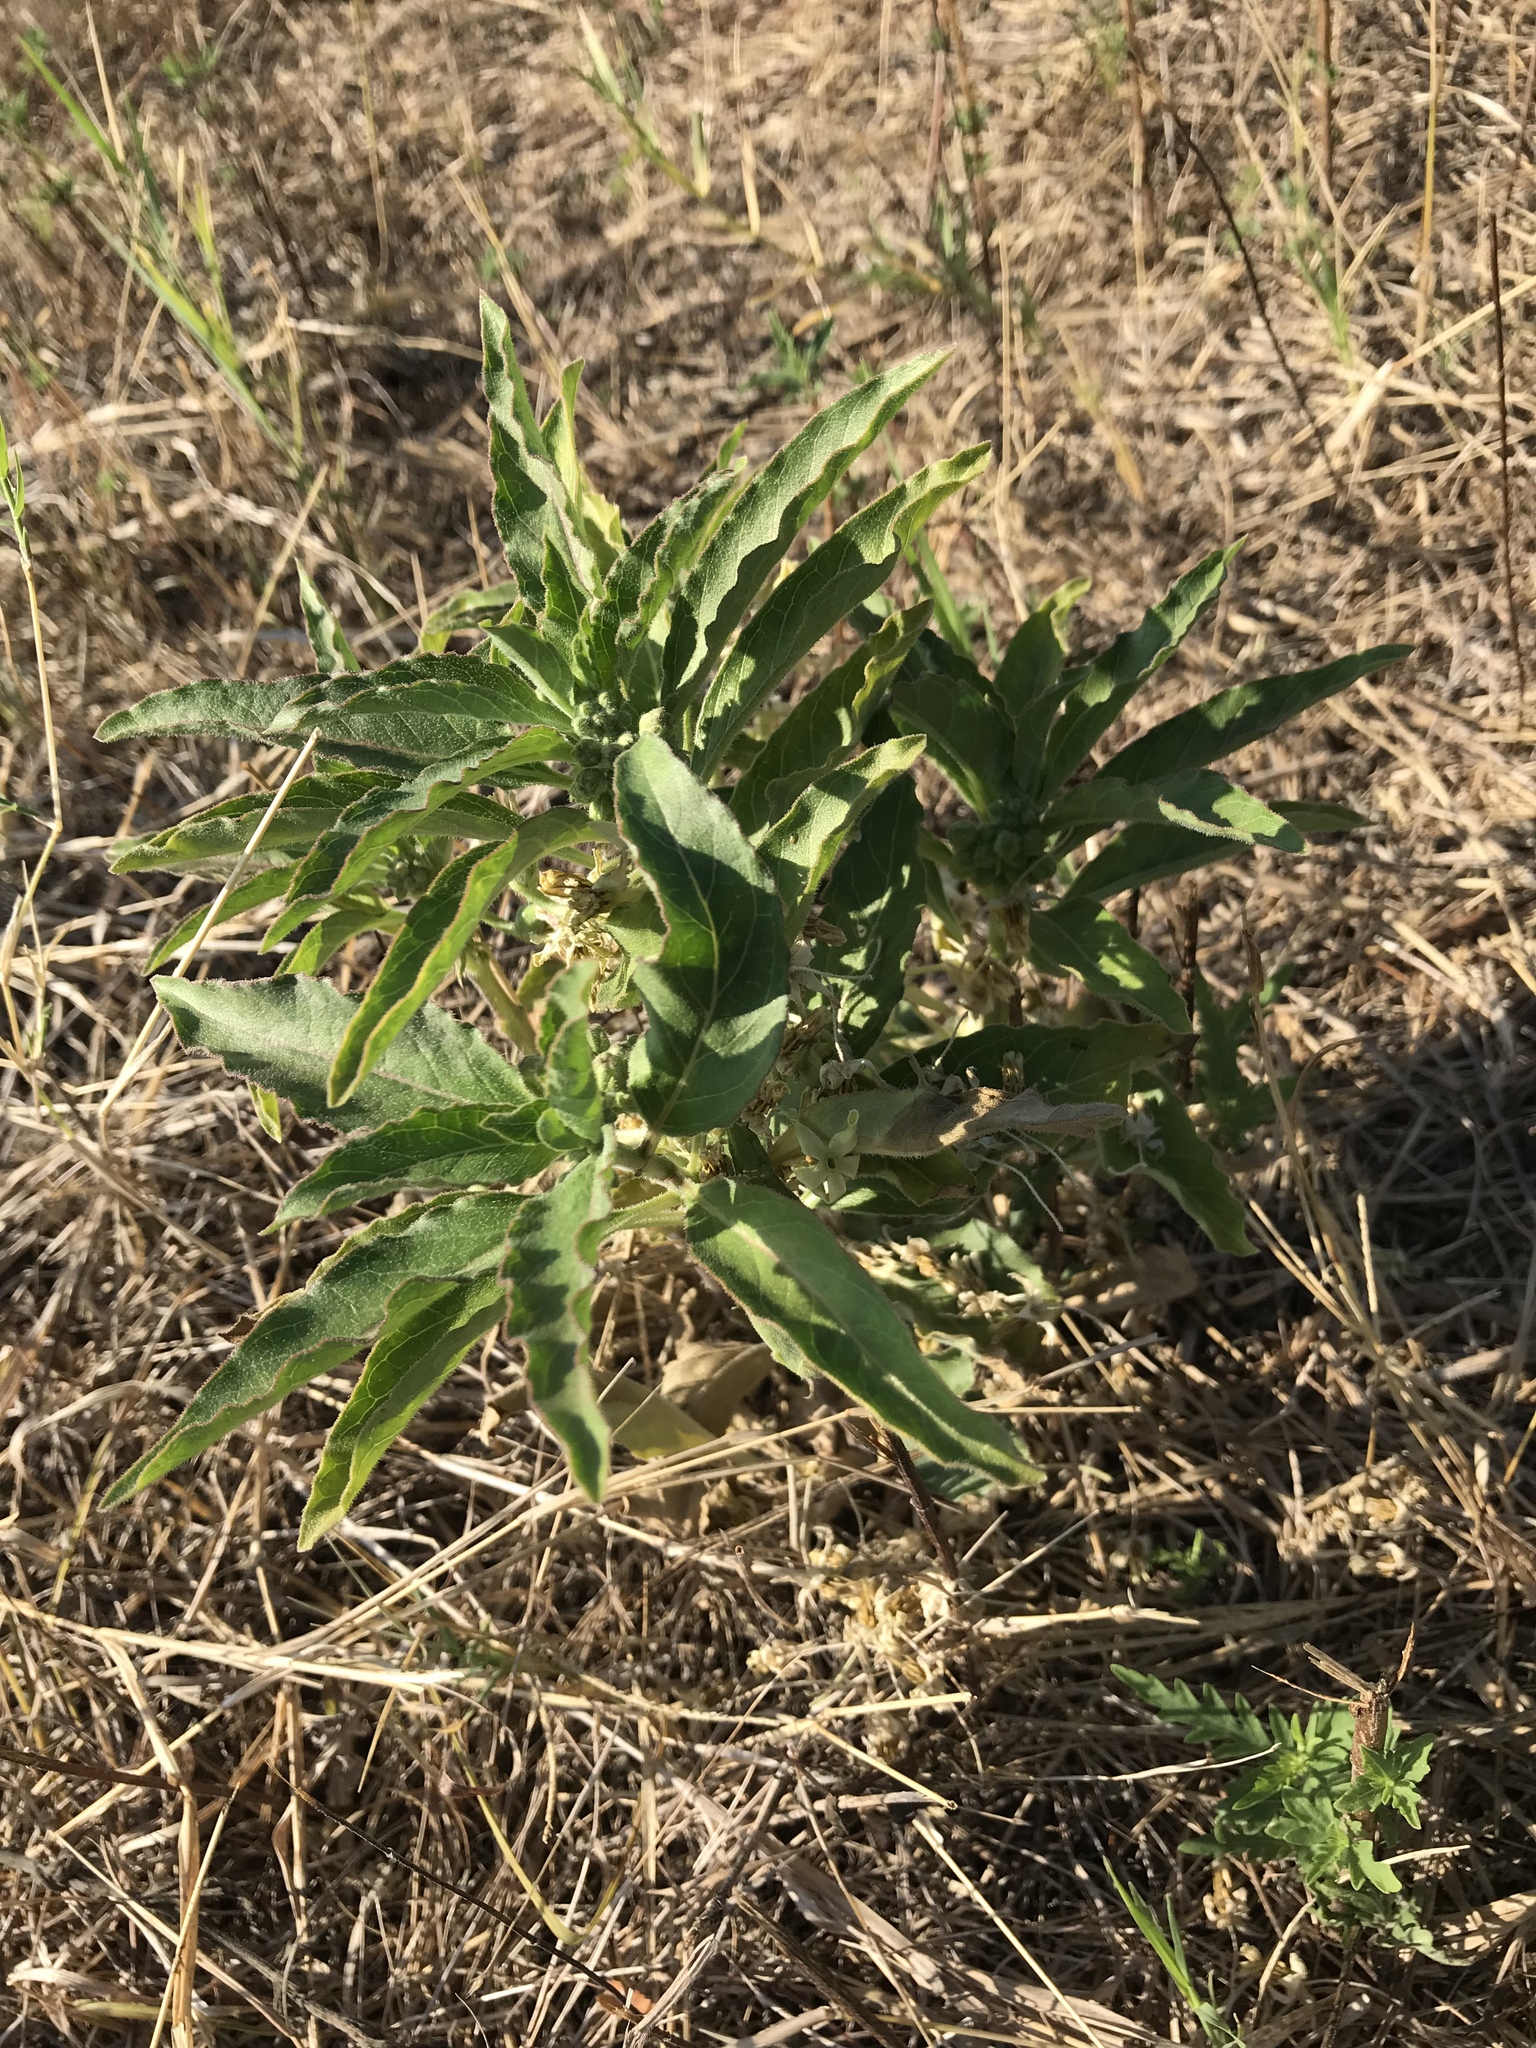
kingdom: Plantae
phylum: Tracheophyta
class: Magnoliopsida
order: Gentianales
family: Apocynaceae
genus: Asclepias
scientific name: Asclepias oenotheroides
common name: Zizotes milkweed
